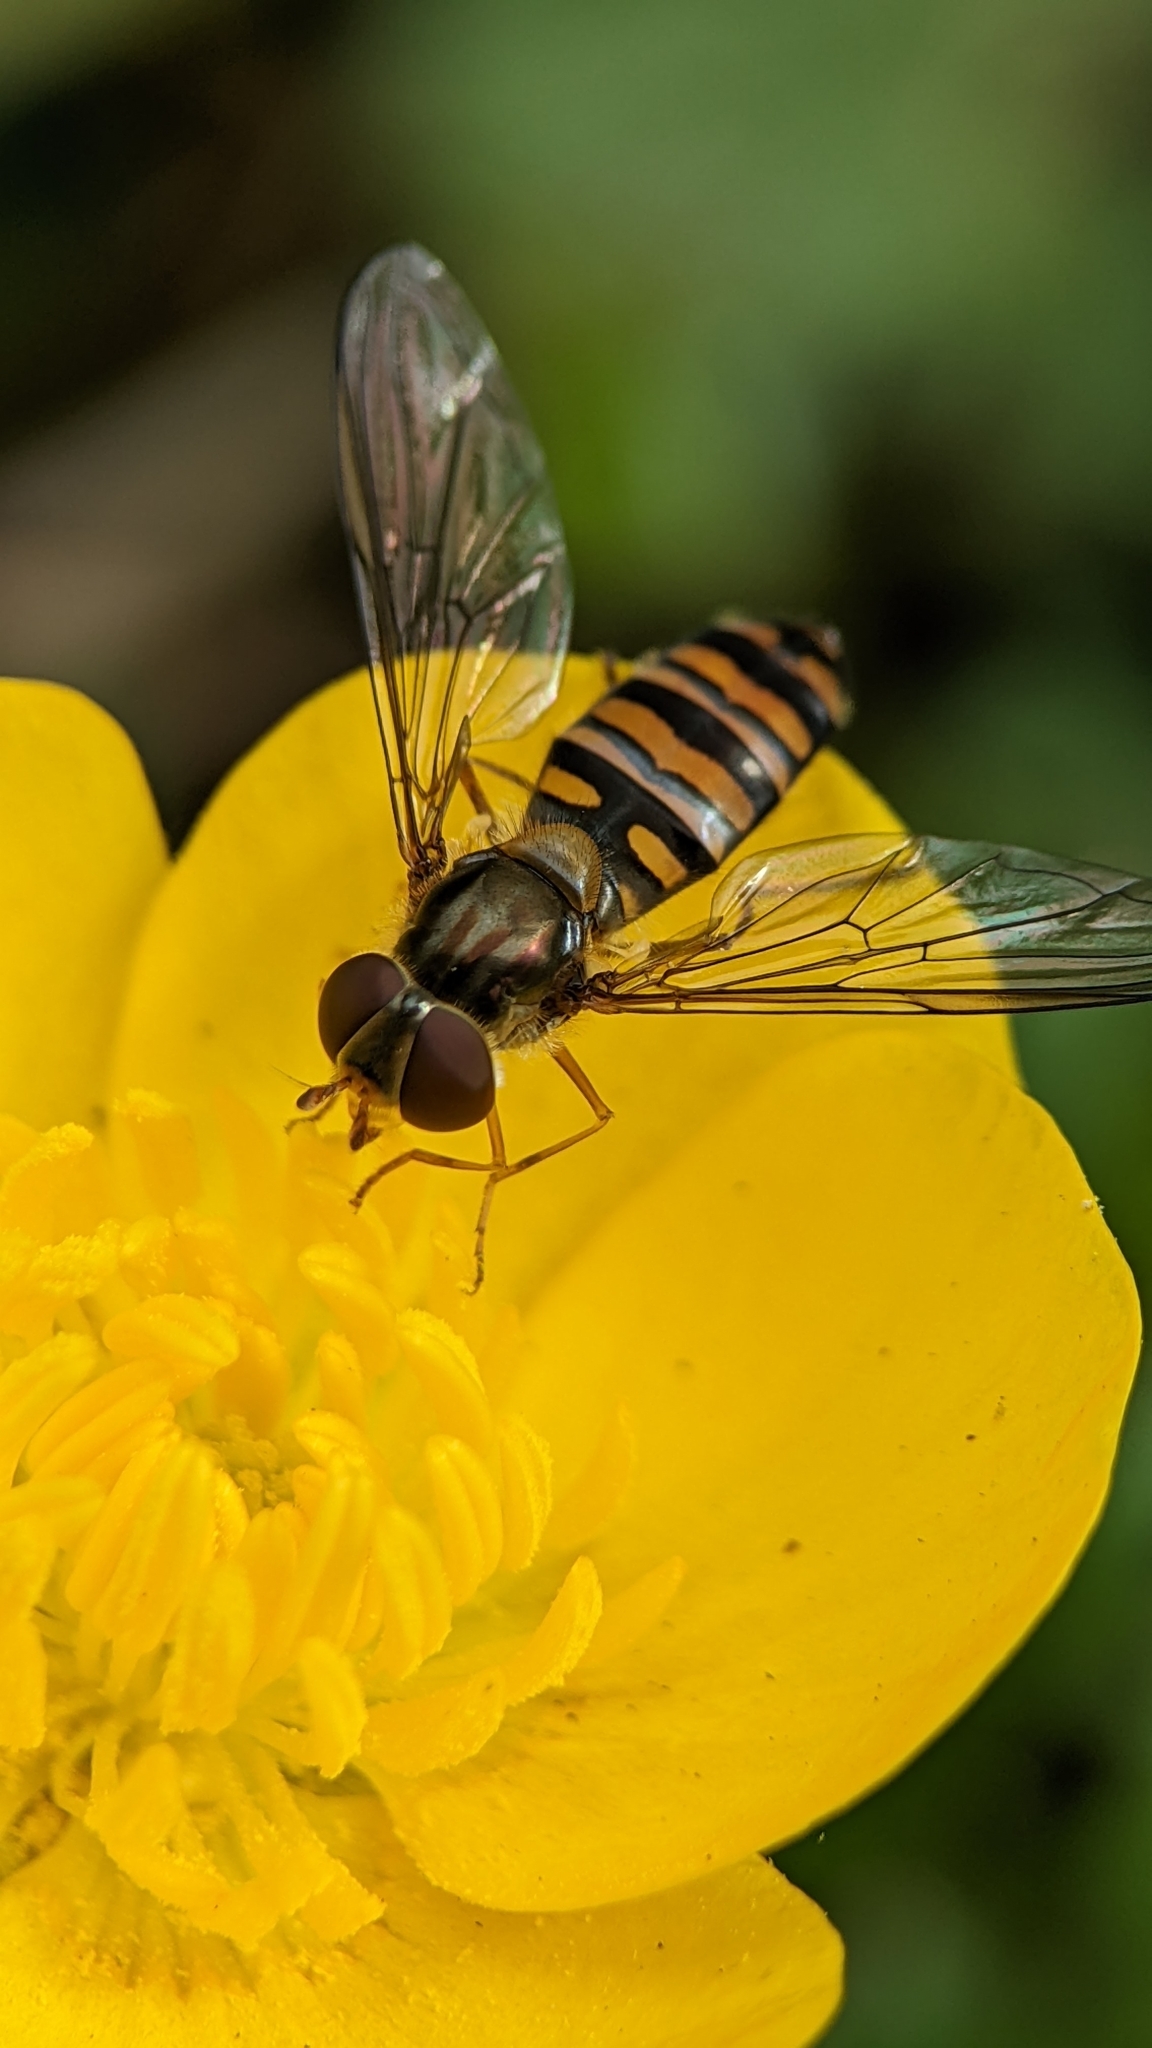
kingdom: Animalia
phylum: Arthropoda
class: Insecta
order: Diptera
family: Syrphidae
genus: Episyrphus
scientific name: Episyrphus balteatus
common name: Marmalade hoverfly
